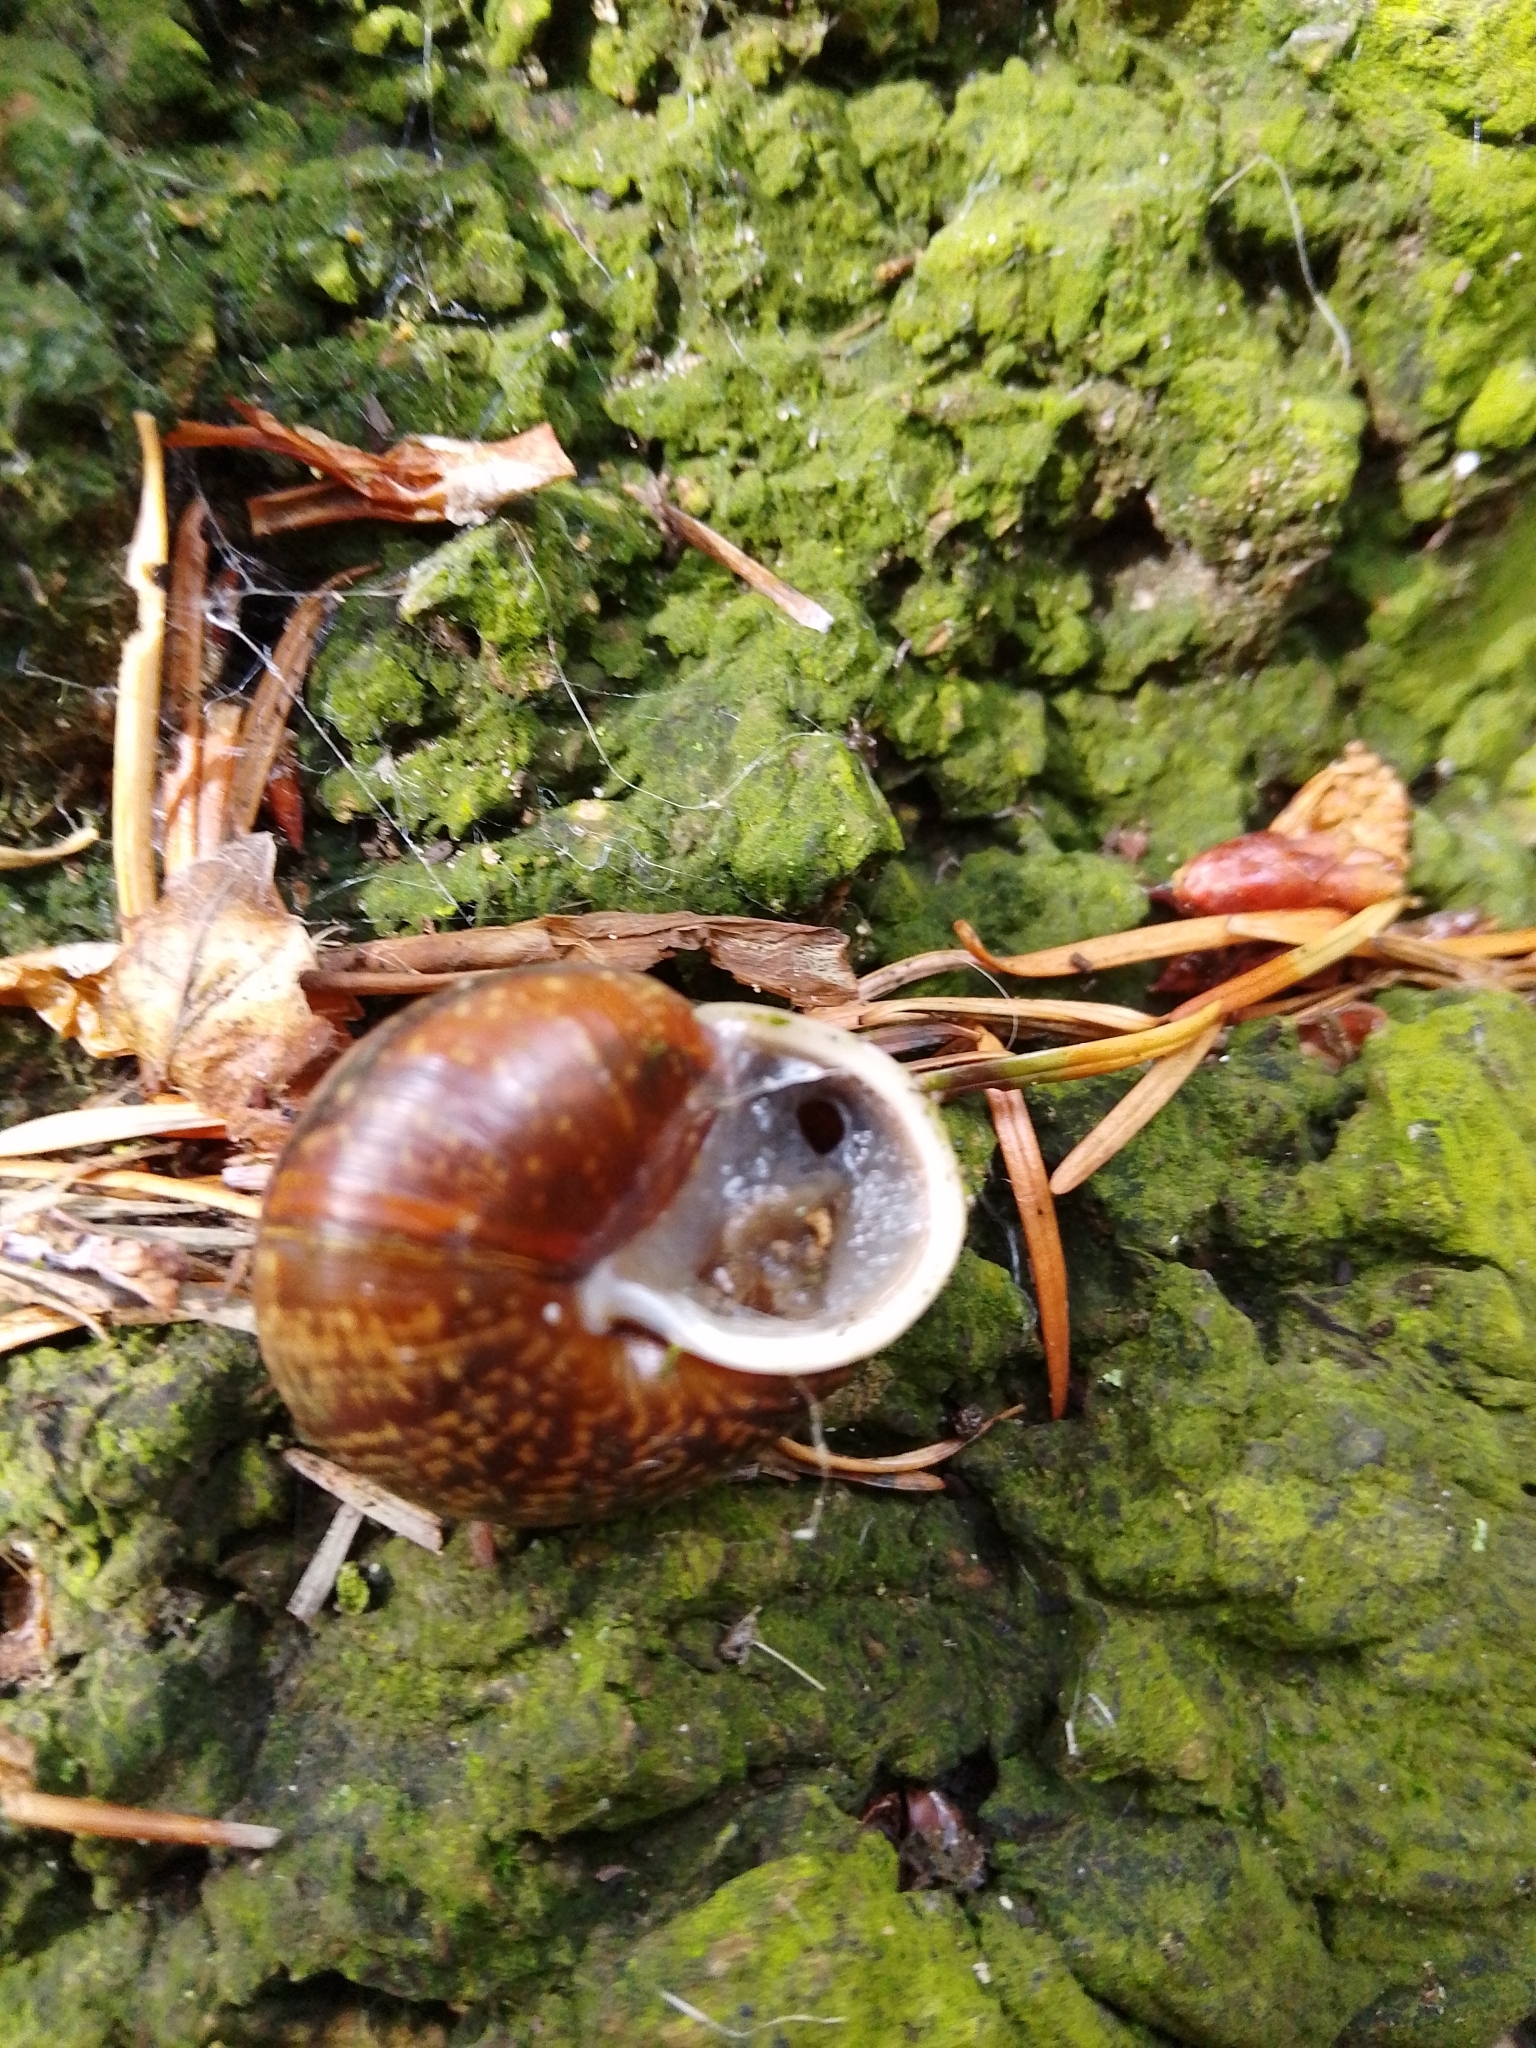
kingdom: Animalia
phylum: Mollusca
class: Gastropoda
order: Stylommatophora
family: Helicidae
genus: Arianta
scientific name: Arianta arbustorum
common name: Copse snail
